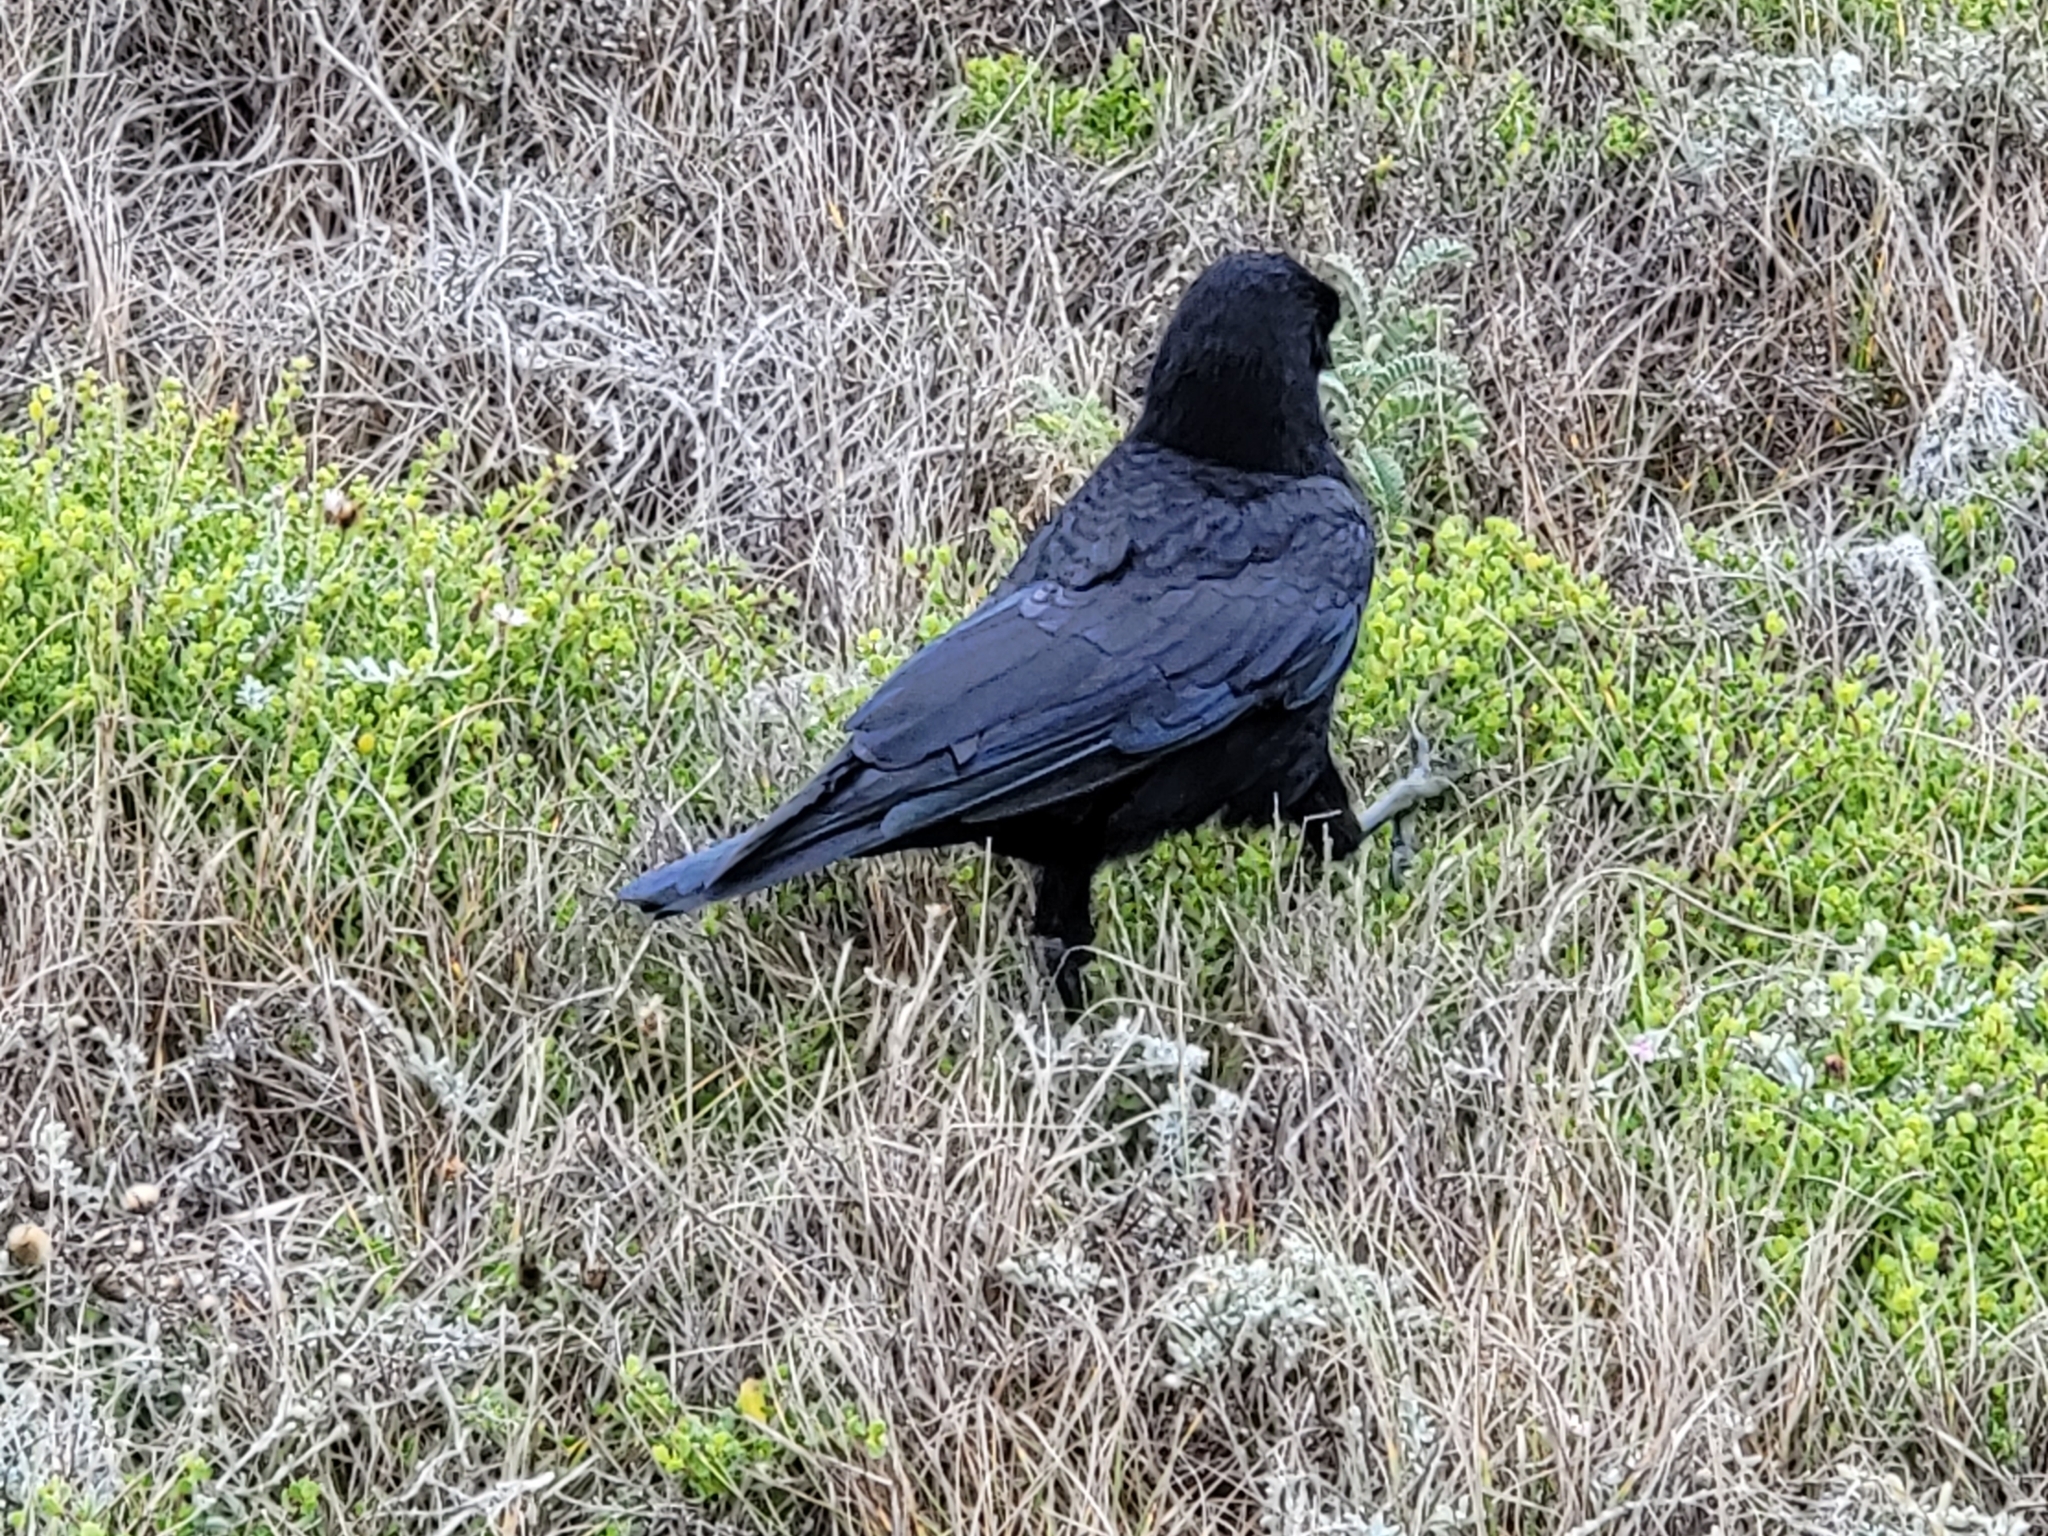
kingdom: Animalia
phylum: Chordata
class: Aves
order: Passeriformes
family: Corvidae
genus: Corvus
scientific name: Corvus brachyrhynchos
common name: American crow
